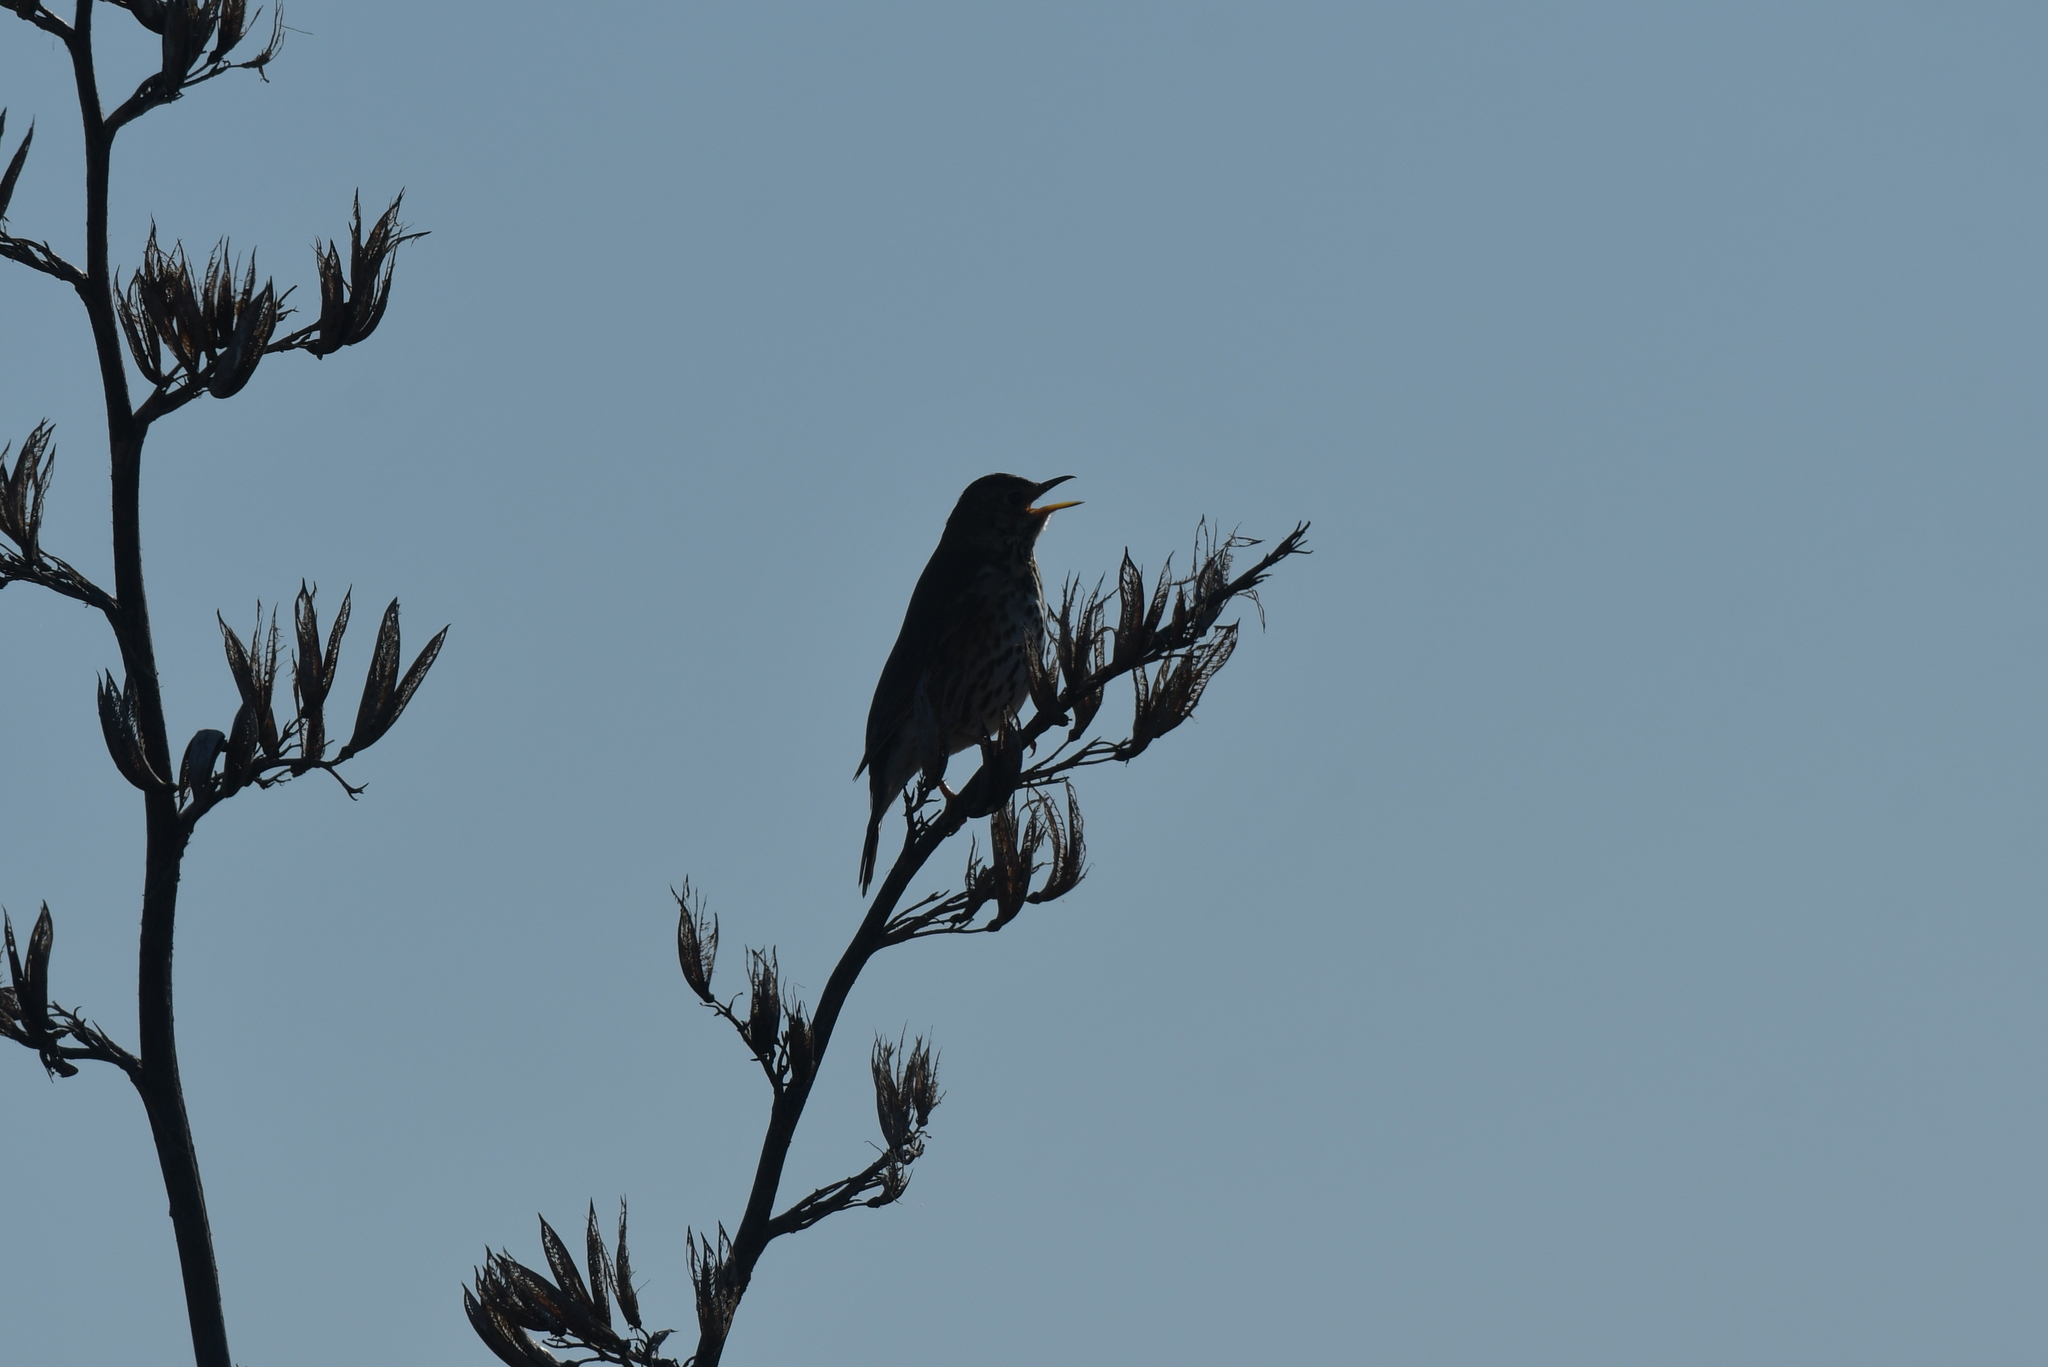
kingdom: Animalia
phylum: Chordata
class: Aves
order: Passeriformes
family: Turdidae
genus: Turdus
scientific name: Turdus philomelos
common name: Song thrush
